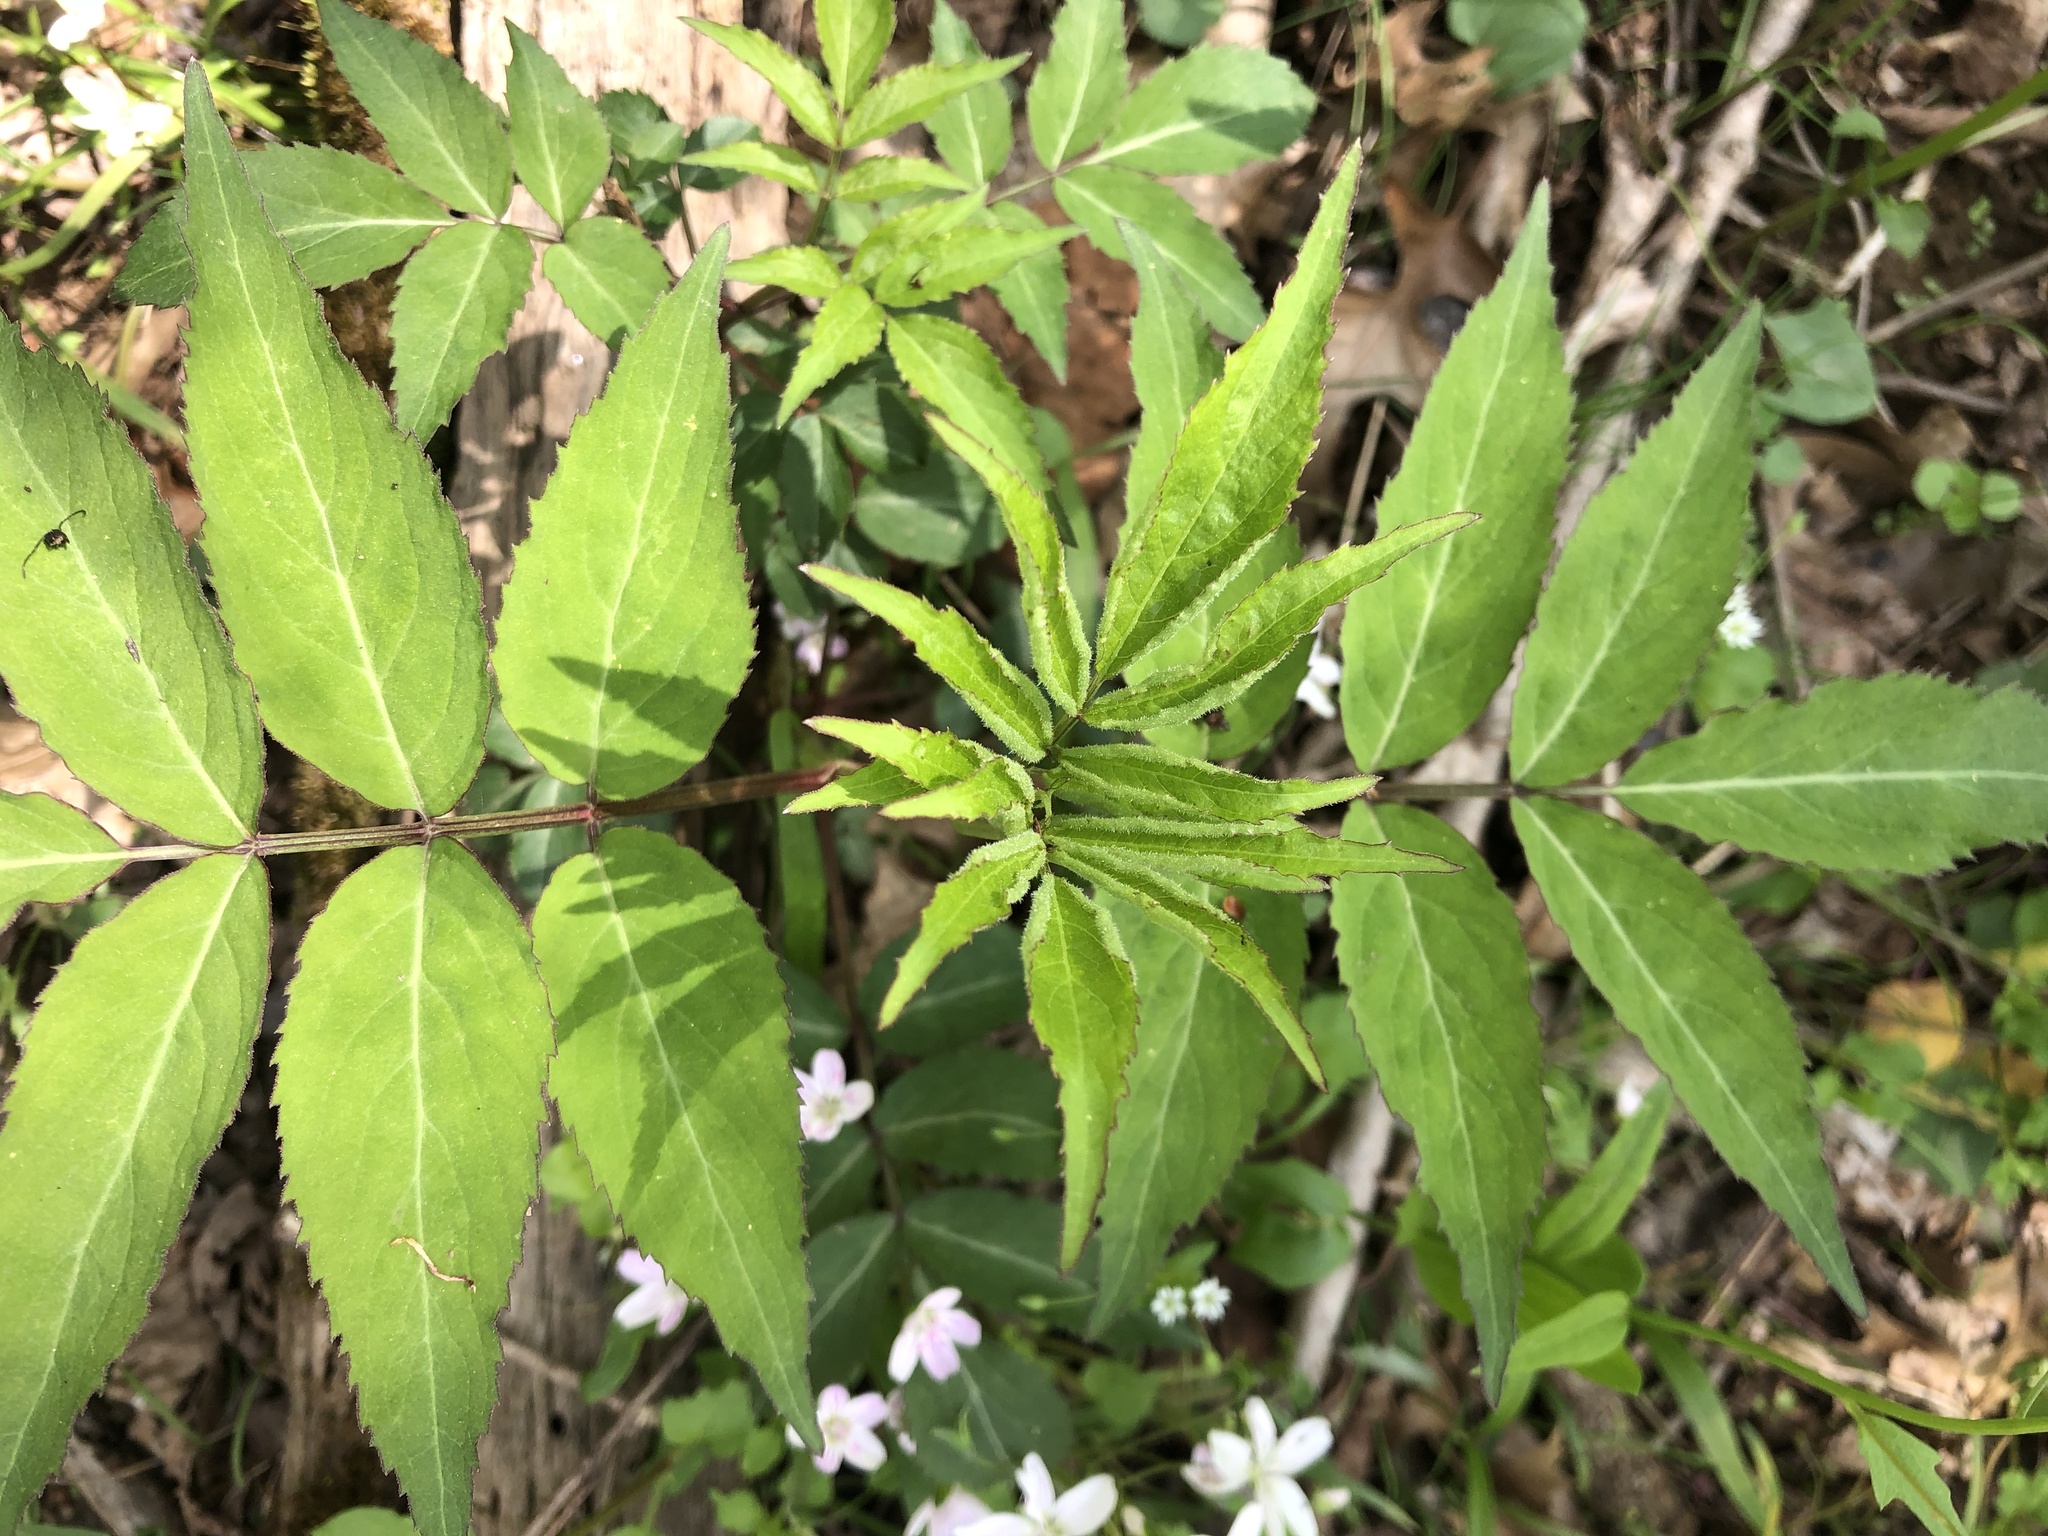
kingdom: Plantae
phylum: Tracheophyta
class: Magnoliopsida
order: Dipsacales
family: Viburnaceae
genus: Sambucus
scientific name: Sambucus canadensis
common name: American elder
